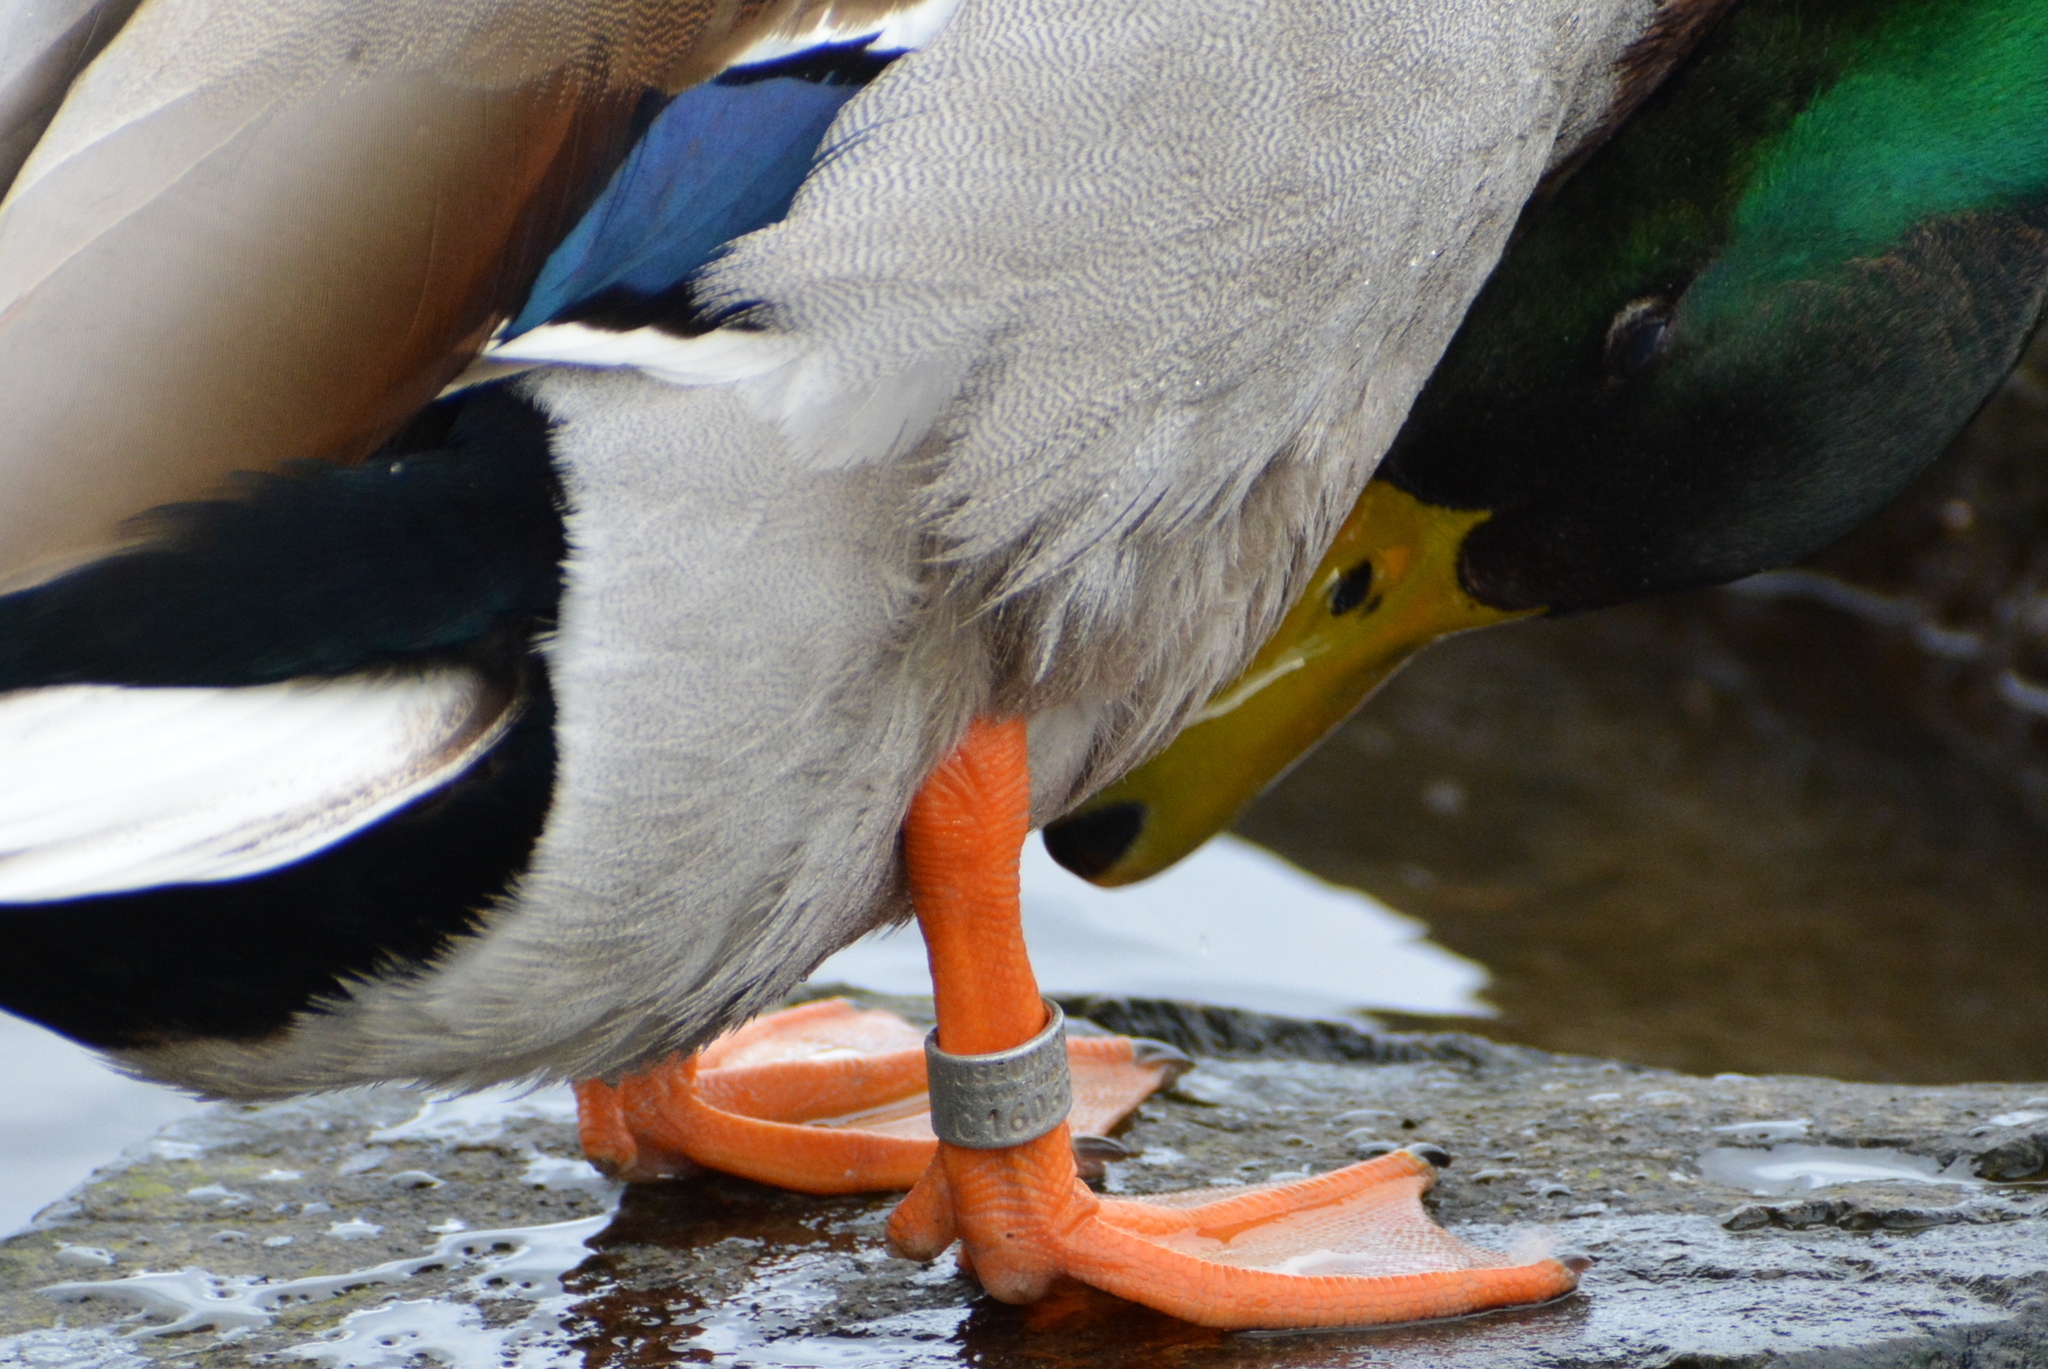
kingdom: Animalia
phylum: Chordata
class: Aves
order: Anseriformes
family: Anatidae
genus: Anas
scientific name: Anas platyrhynchos
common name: Mallard
